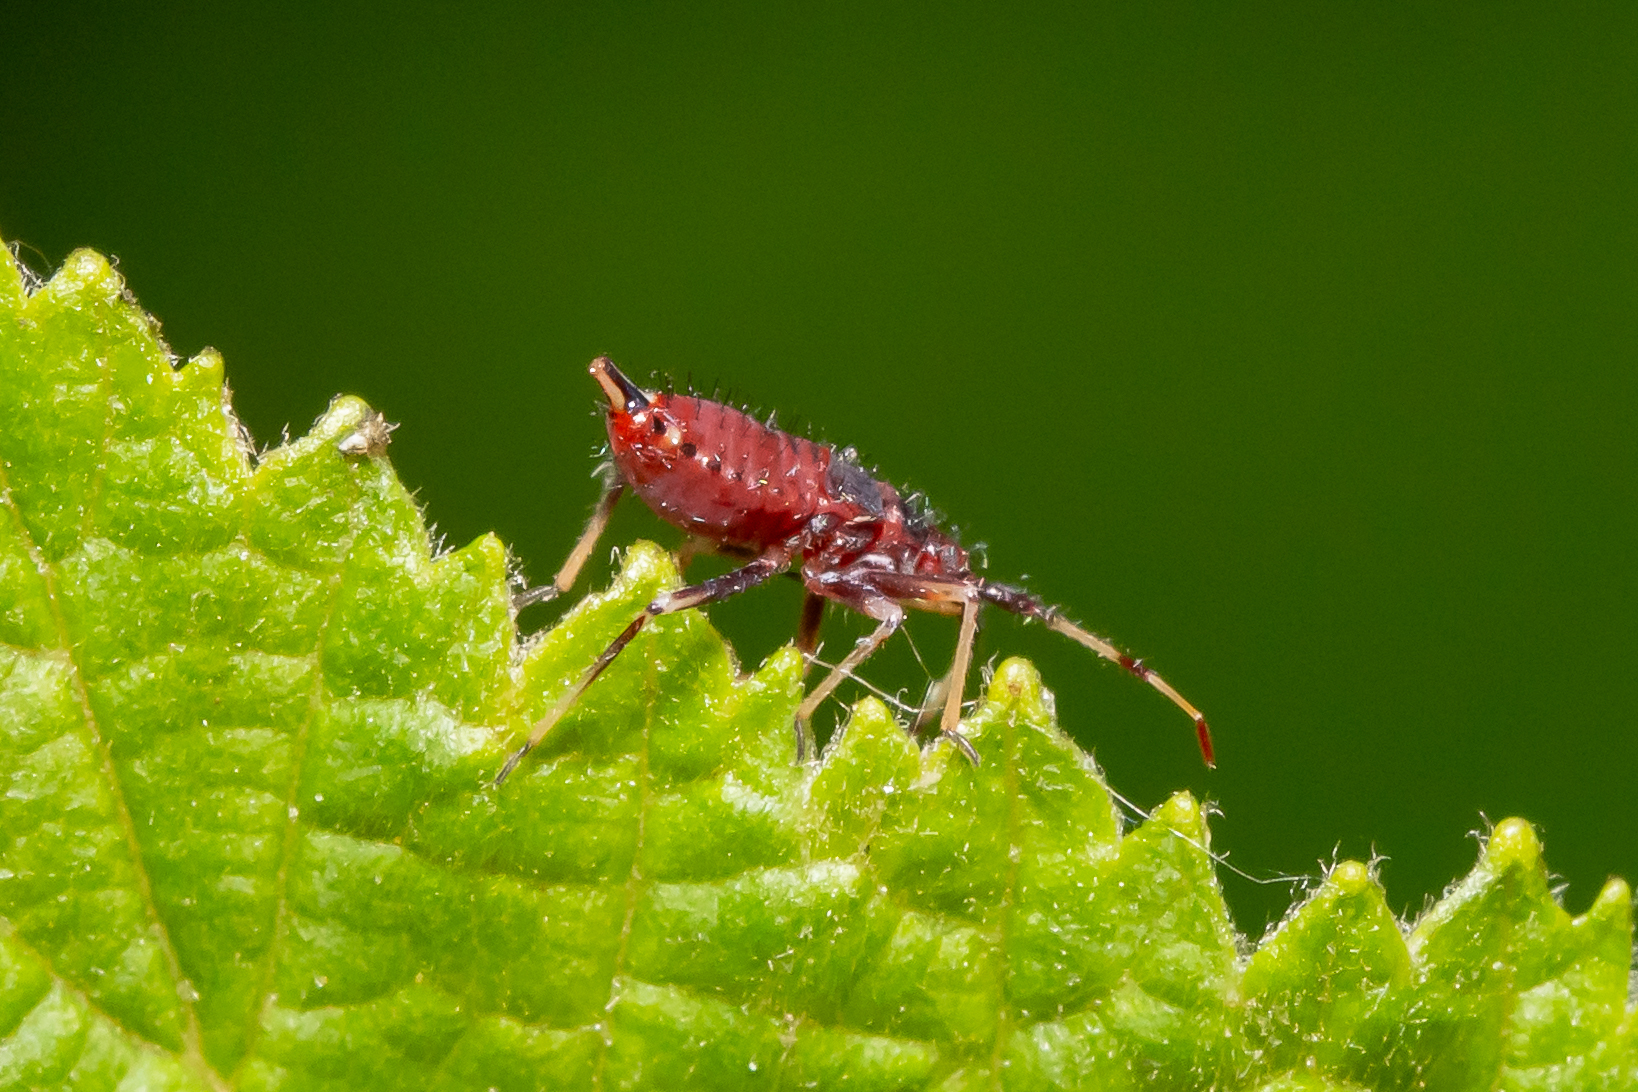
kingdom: Animalia
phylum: Arthropoda
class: Insecta
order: Hemiptera
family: Miridae
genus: Deraeocoris
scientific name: Deraeocoris ruber
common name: Plant bug
